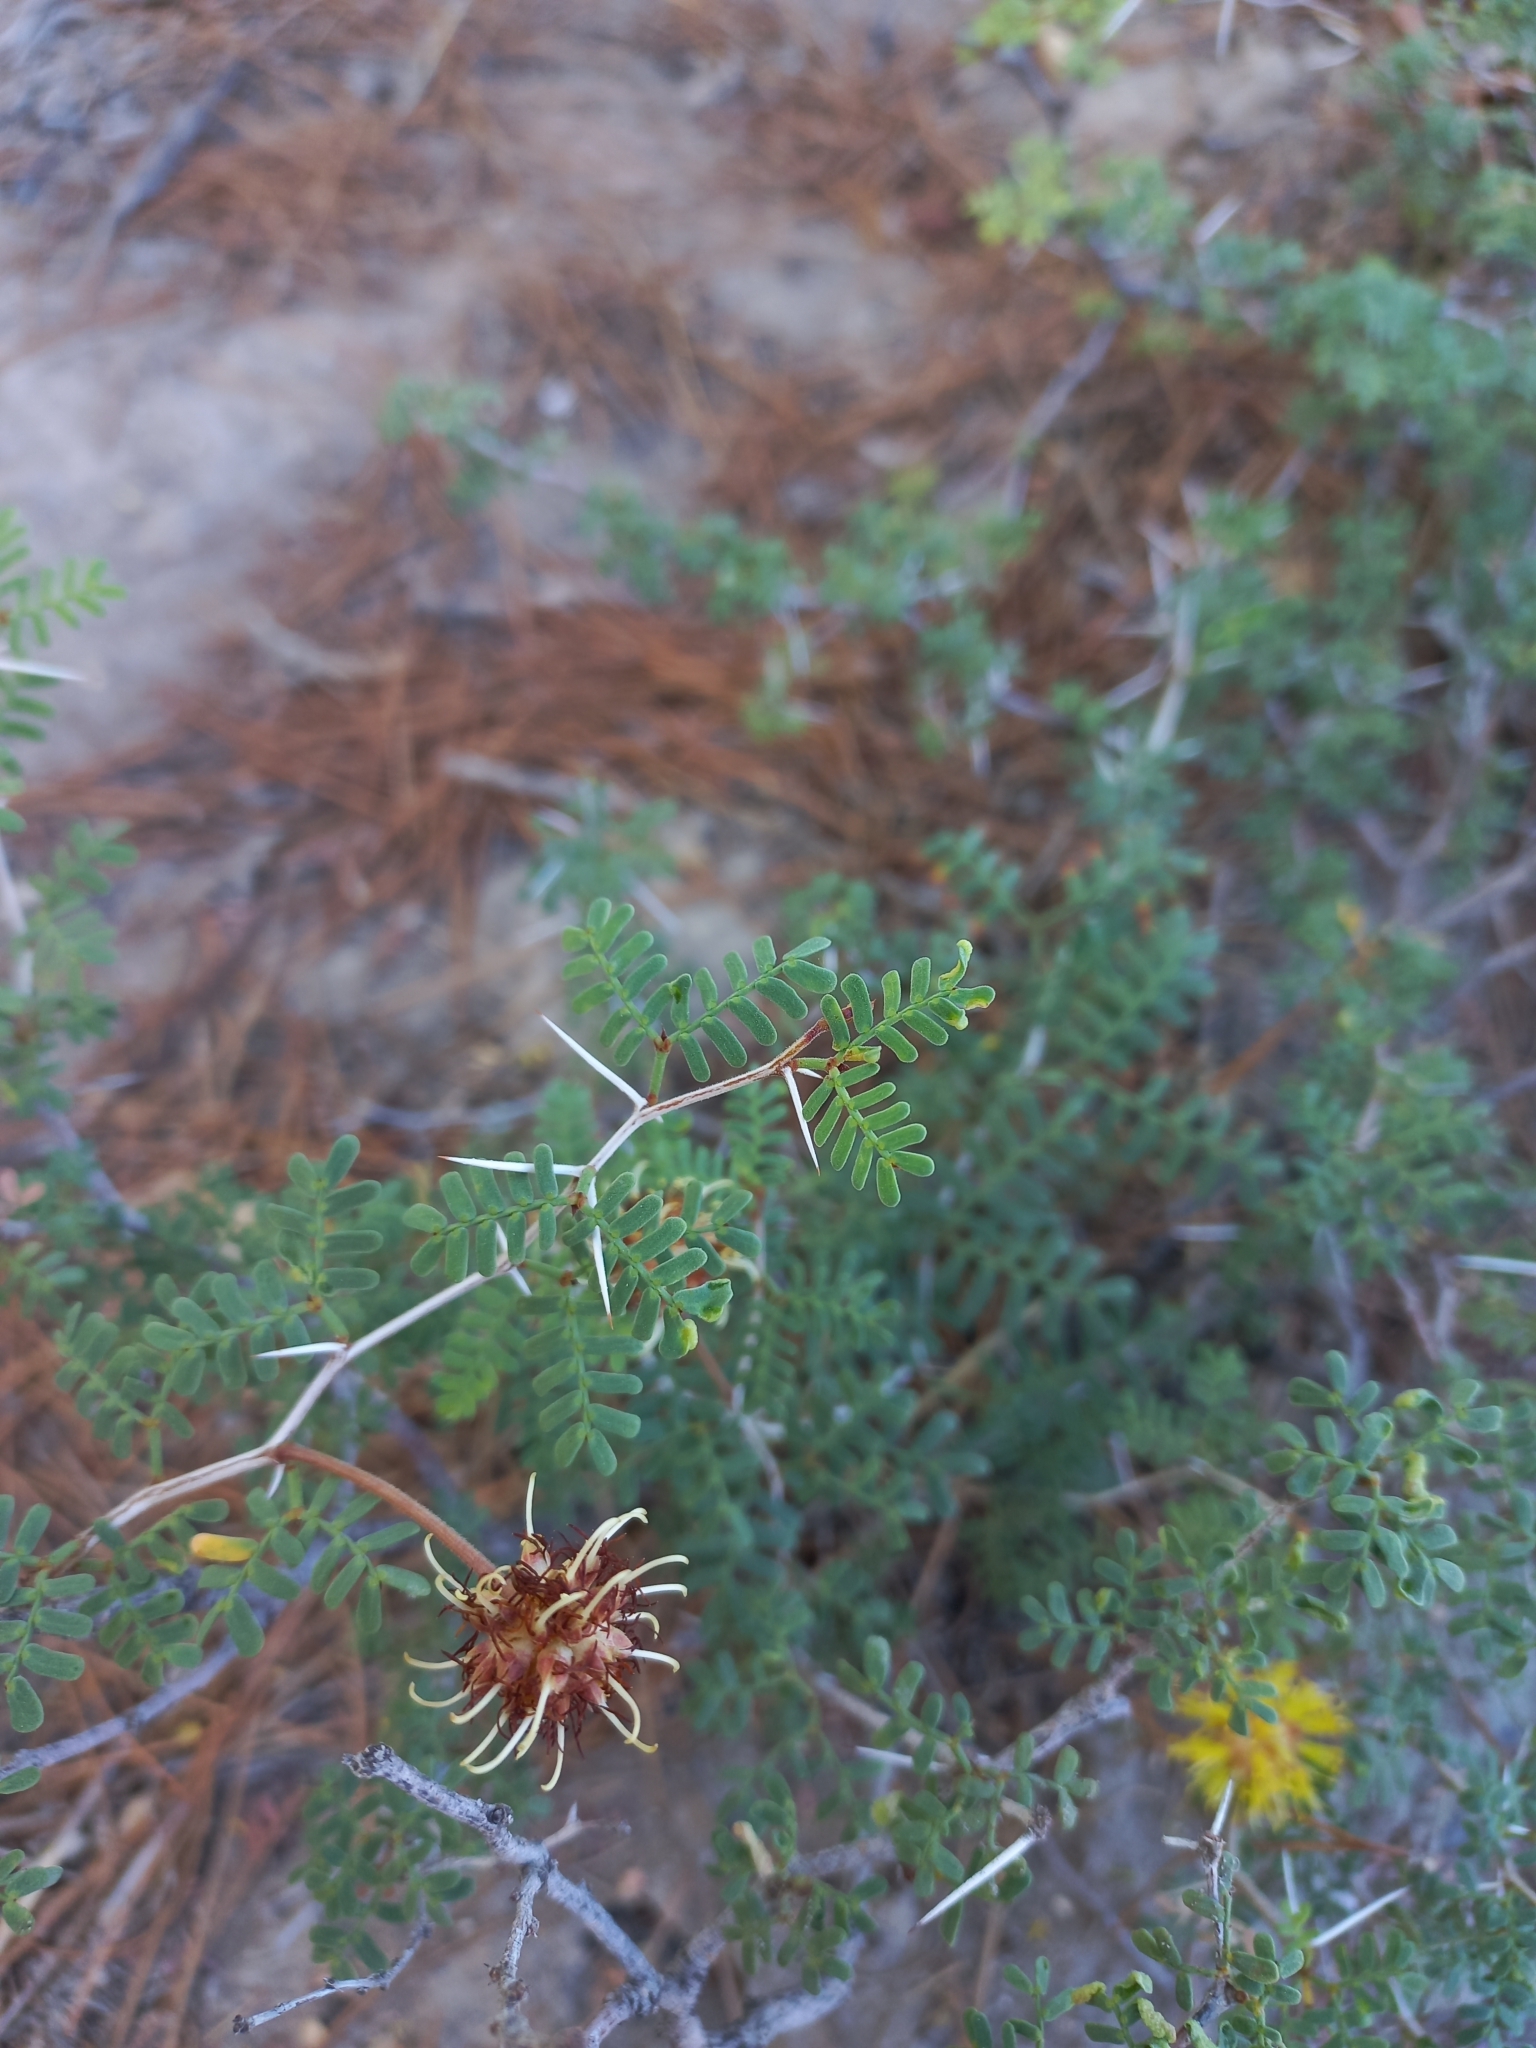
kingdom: Plantae
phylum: Tracheophyta
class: Magnoliopsida
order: Fabales
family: Fabaceae
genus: Prosopis
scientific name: Prosopis strombulifera
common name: Creeping mesquite
